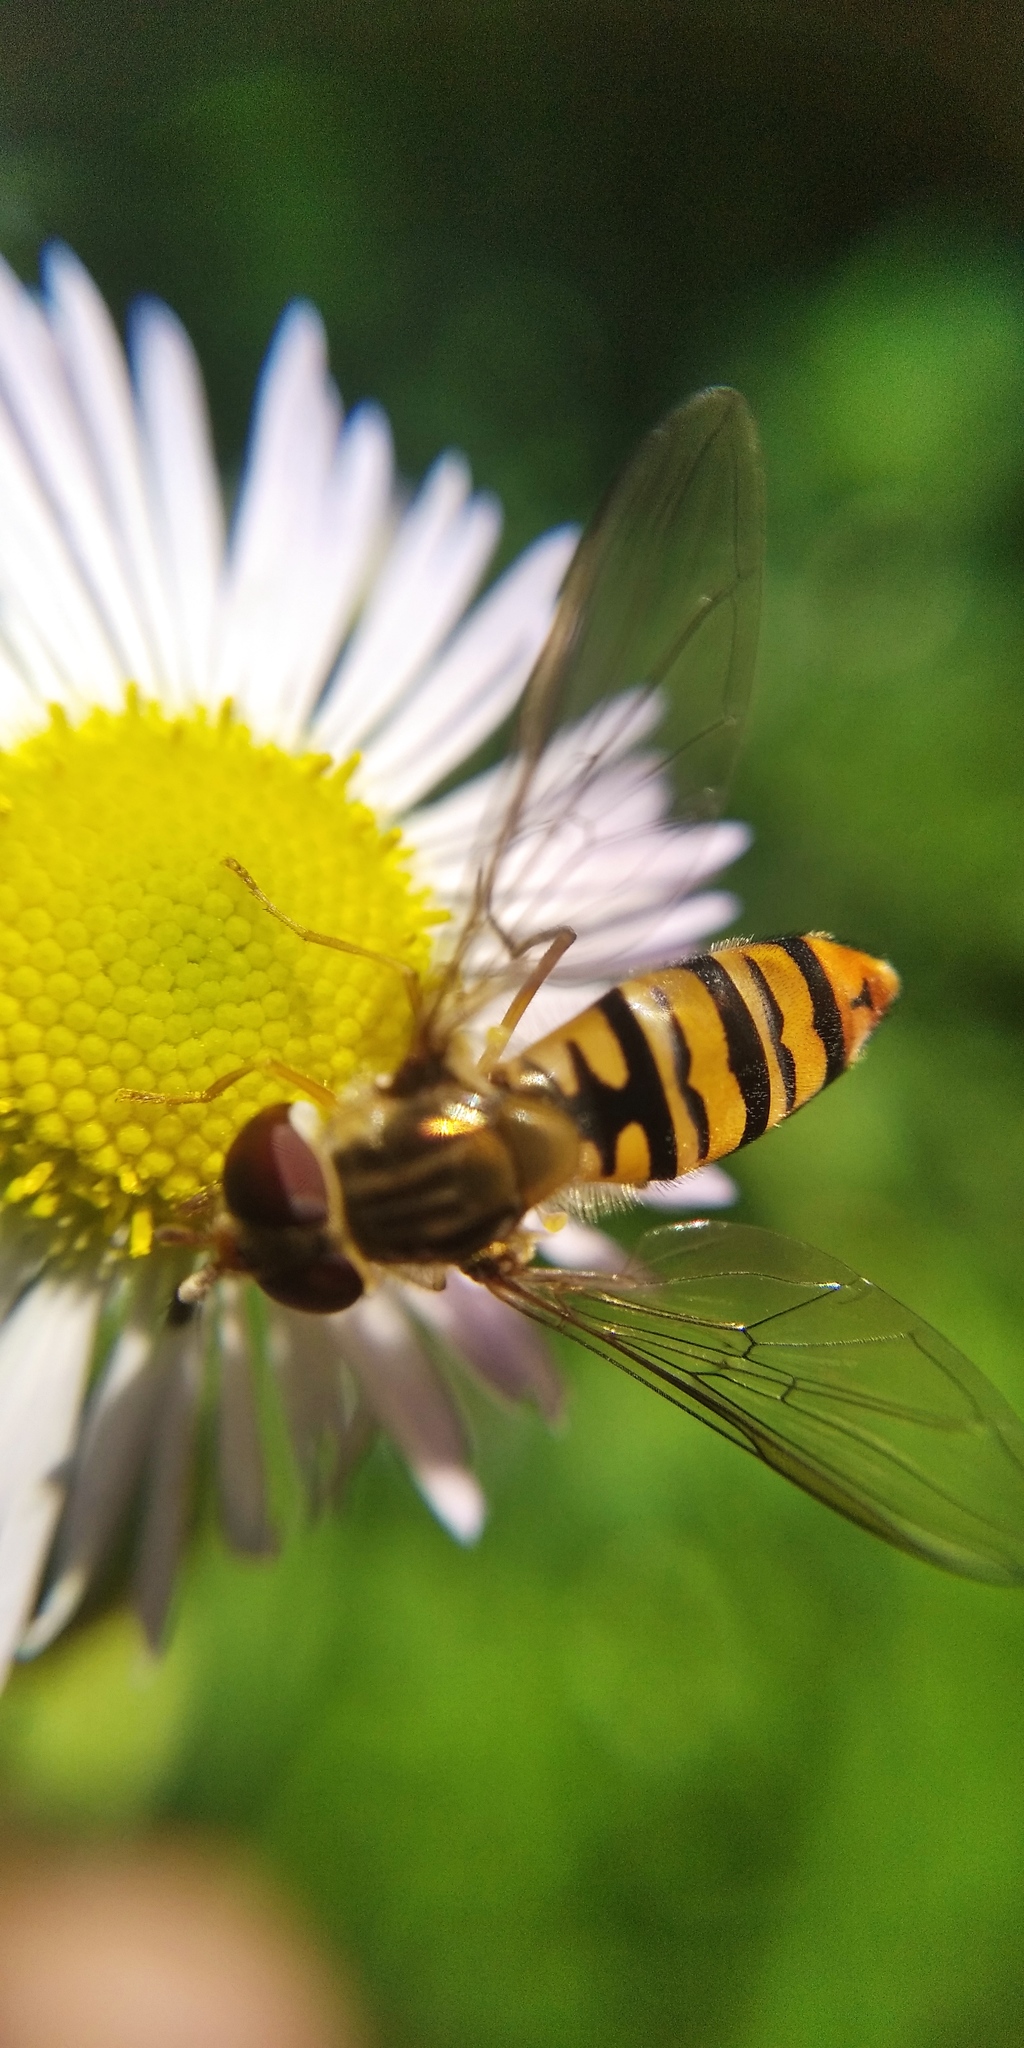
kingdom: Animalia
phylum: Arthropoda
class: Insecta
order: Diptera
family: Syrphidae
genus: Episyrphus
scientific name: Episyrphus balteatus
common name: Marmalade hoverfly
